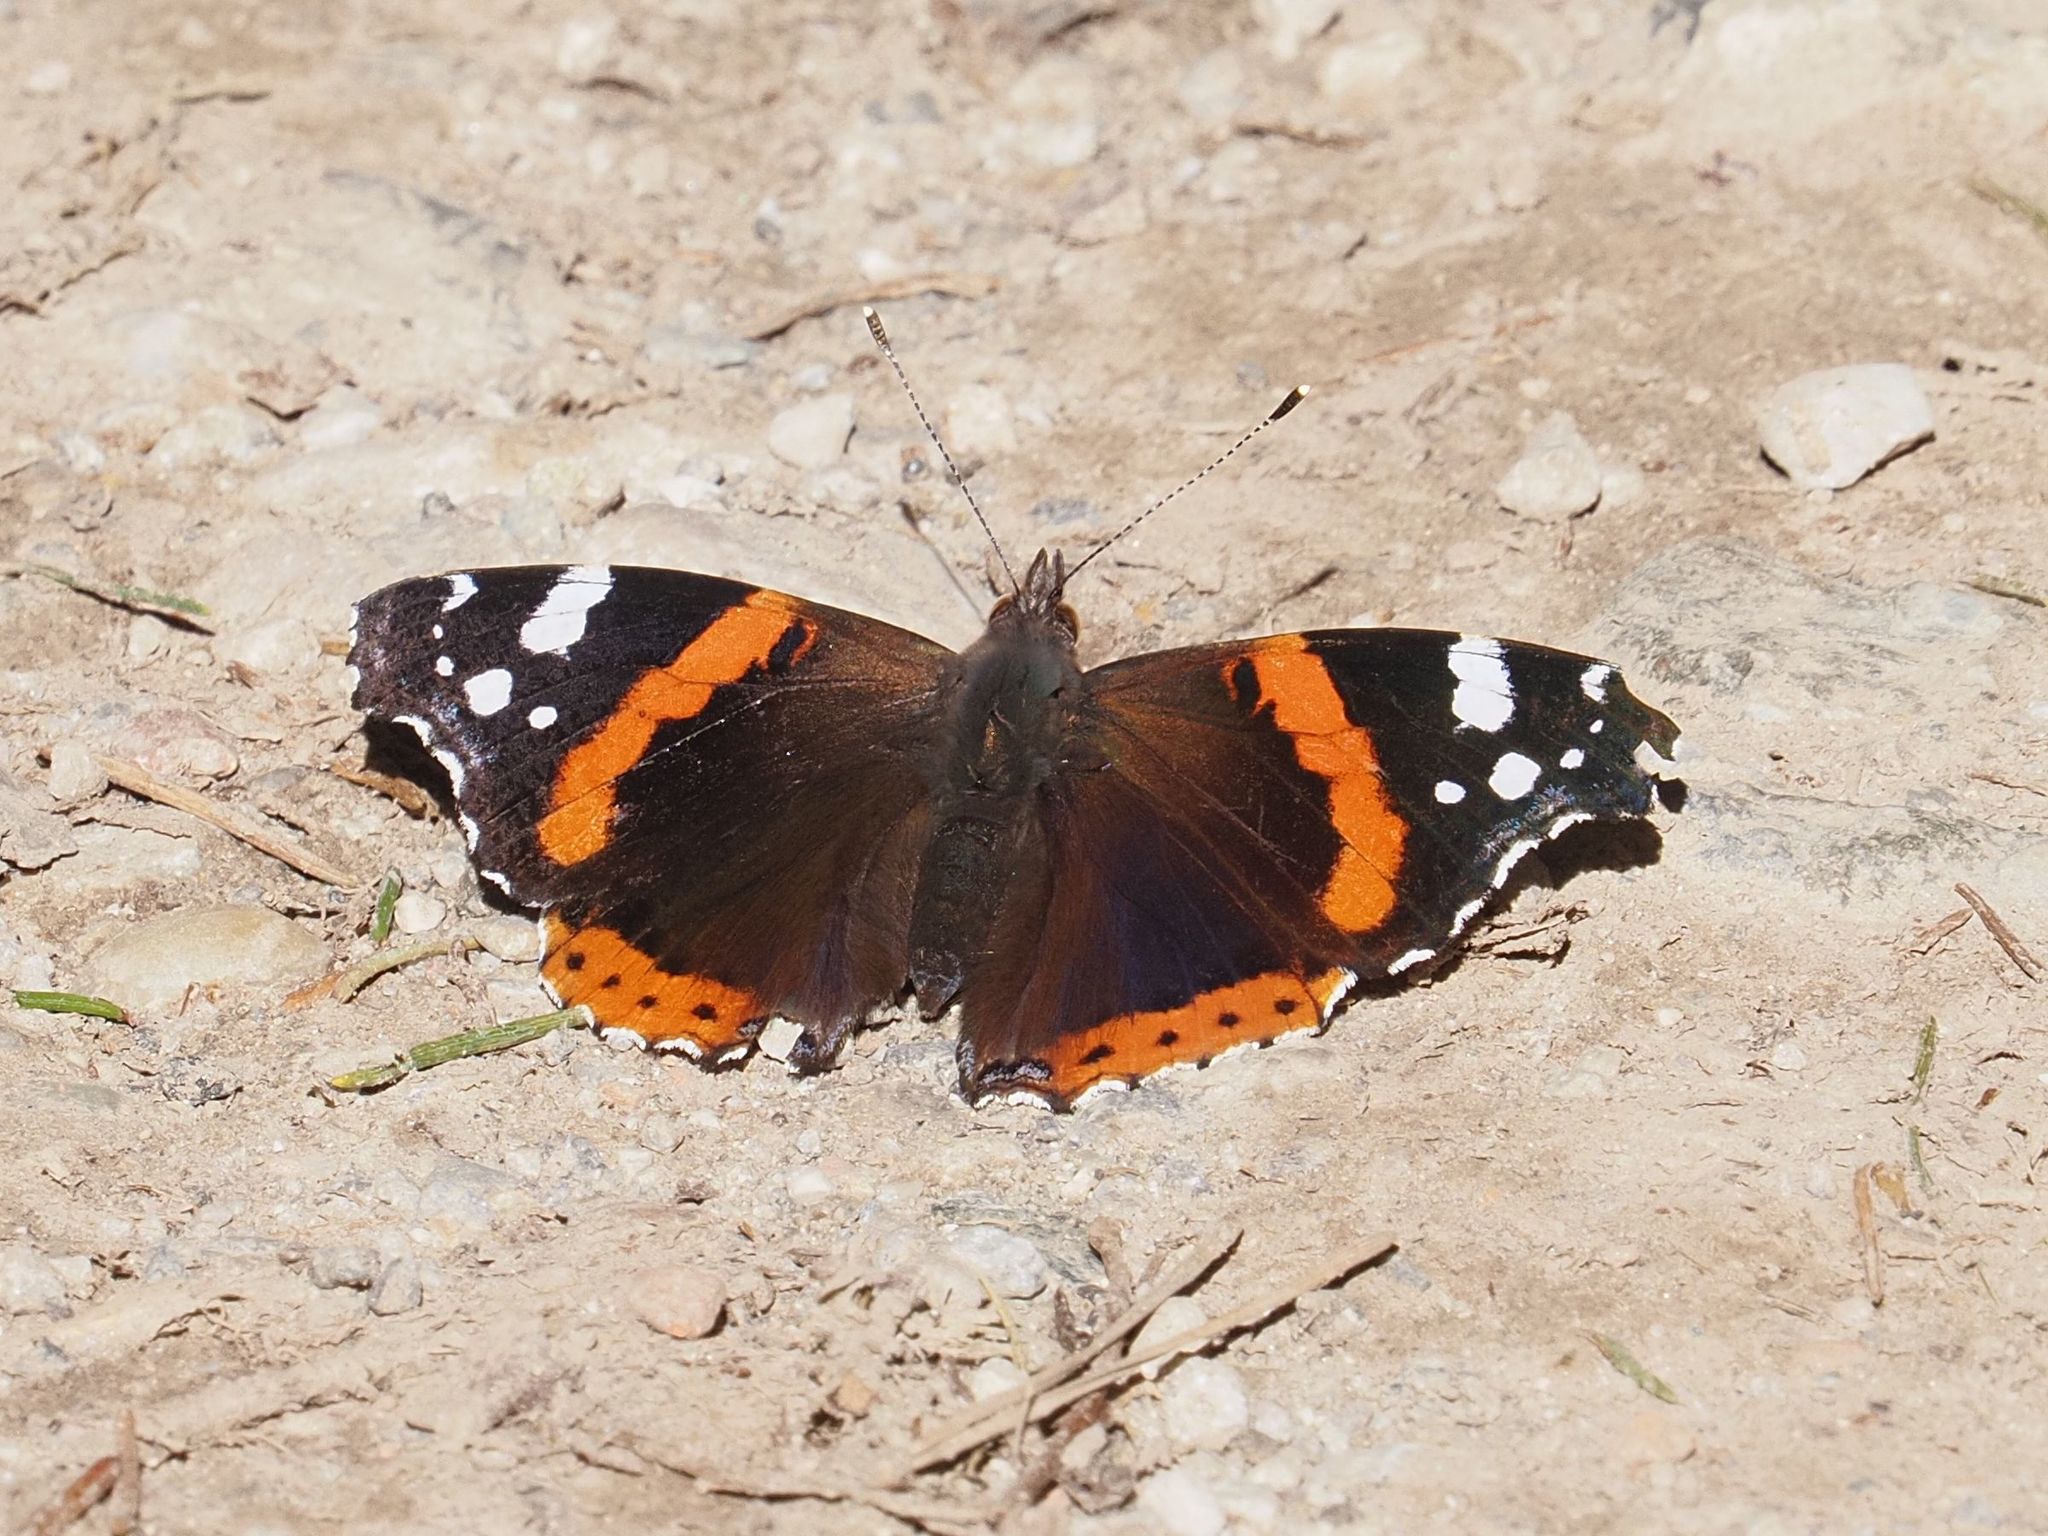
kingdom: Animalia
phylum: Arthropoda
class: Insecta
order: Lepidoptera
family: Nymphalidae
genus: Vanessa
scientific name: Vanessa atalanta
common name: Red admiral
